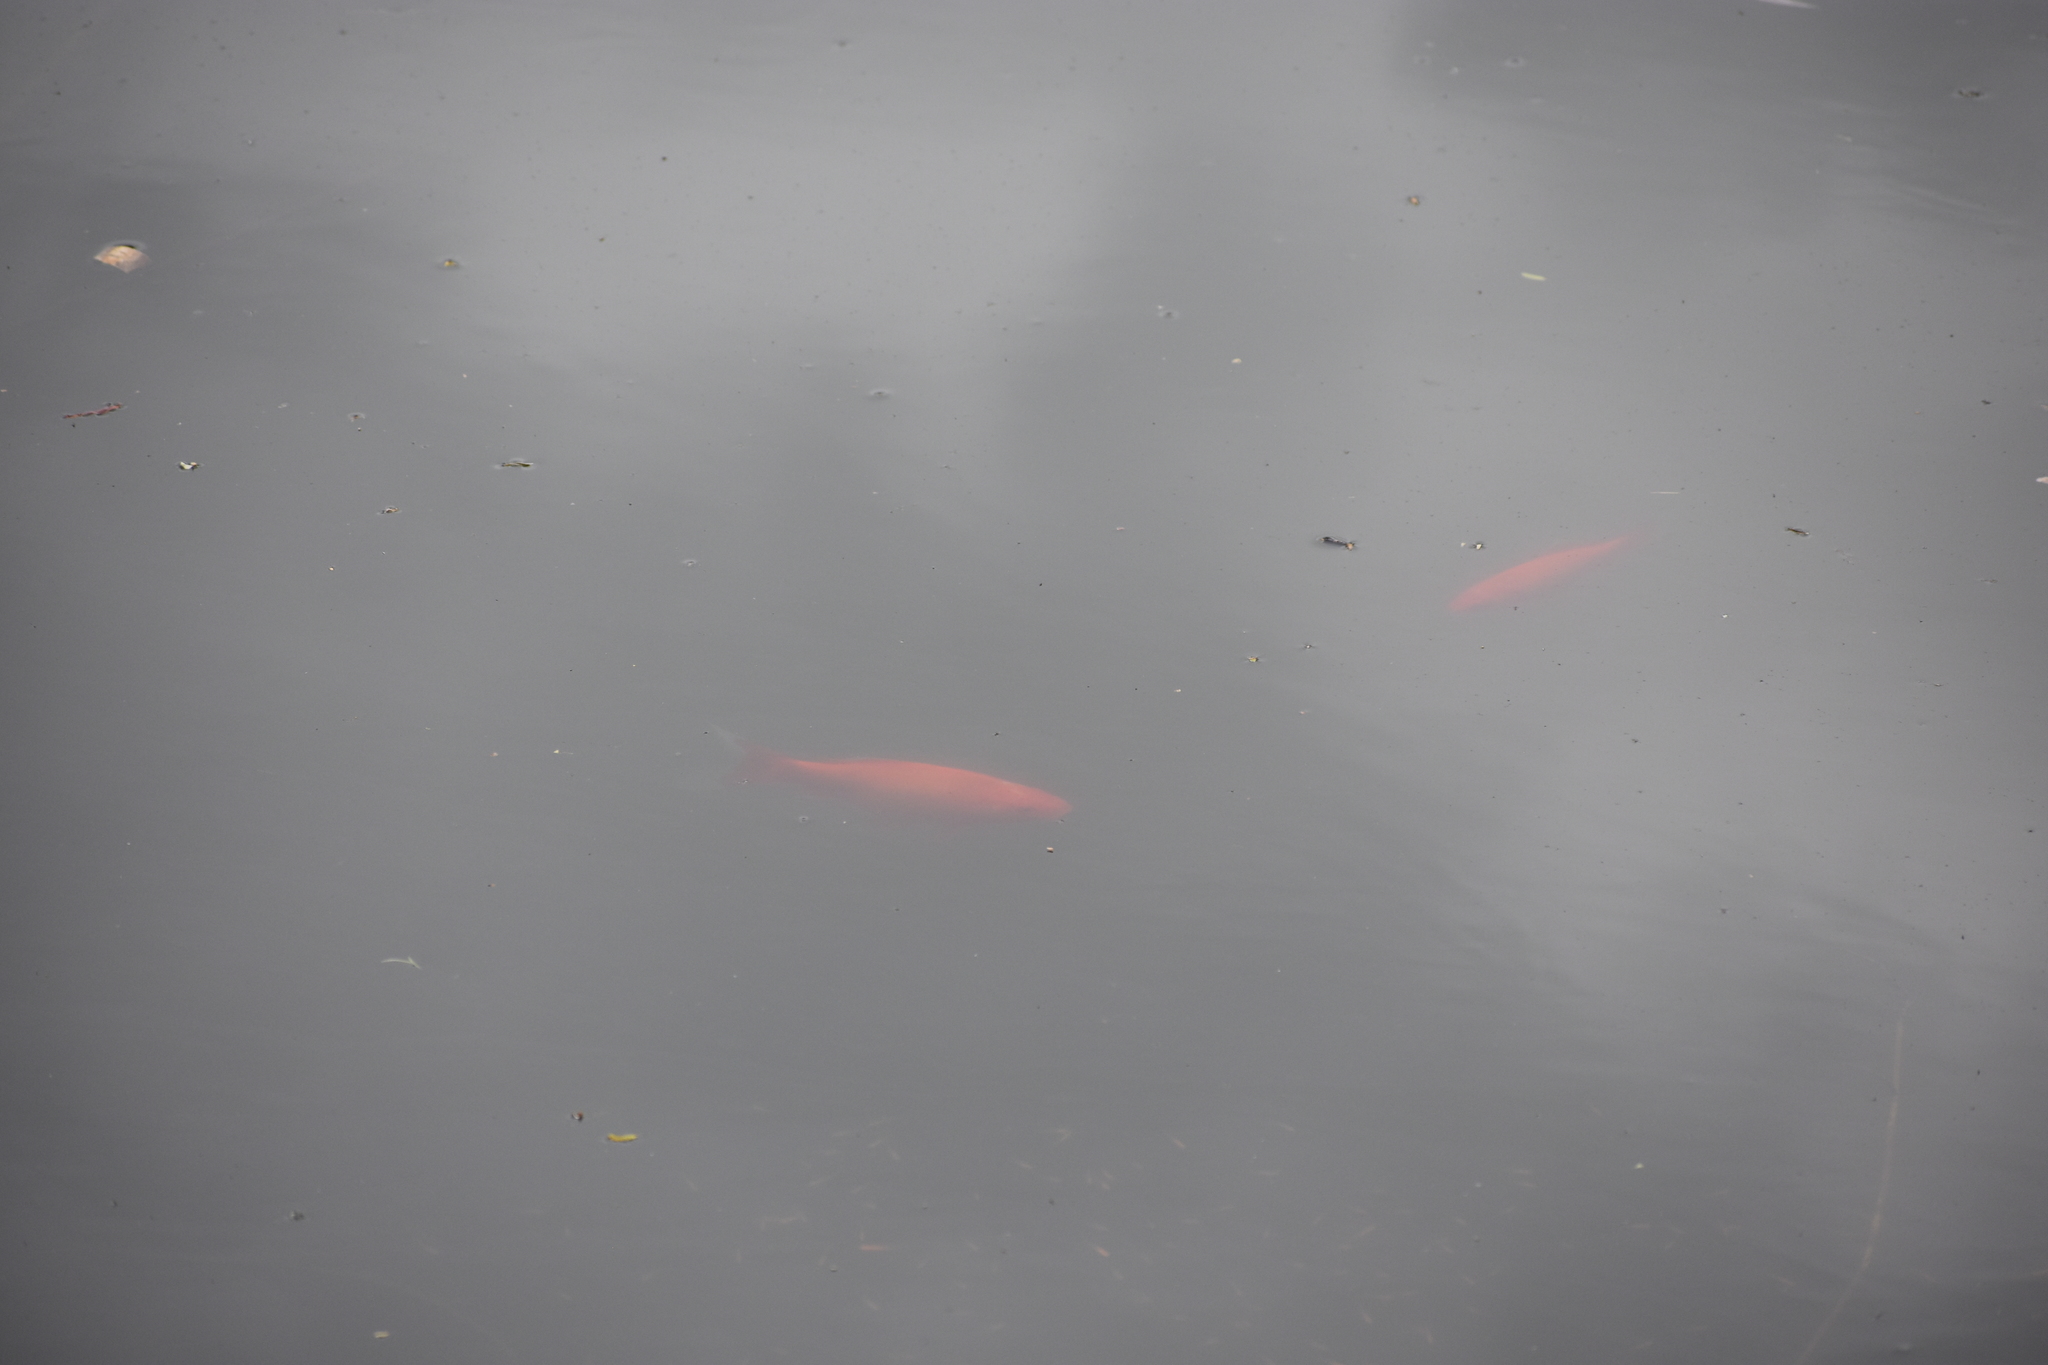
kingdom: Animalia
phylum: Chordata
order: Cypriniformes
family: Cyprinidae
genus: Carassius
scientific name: Carassius auratus
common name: Goldfish
